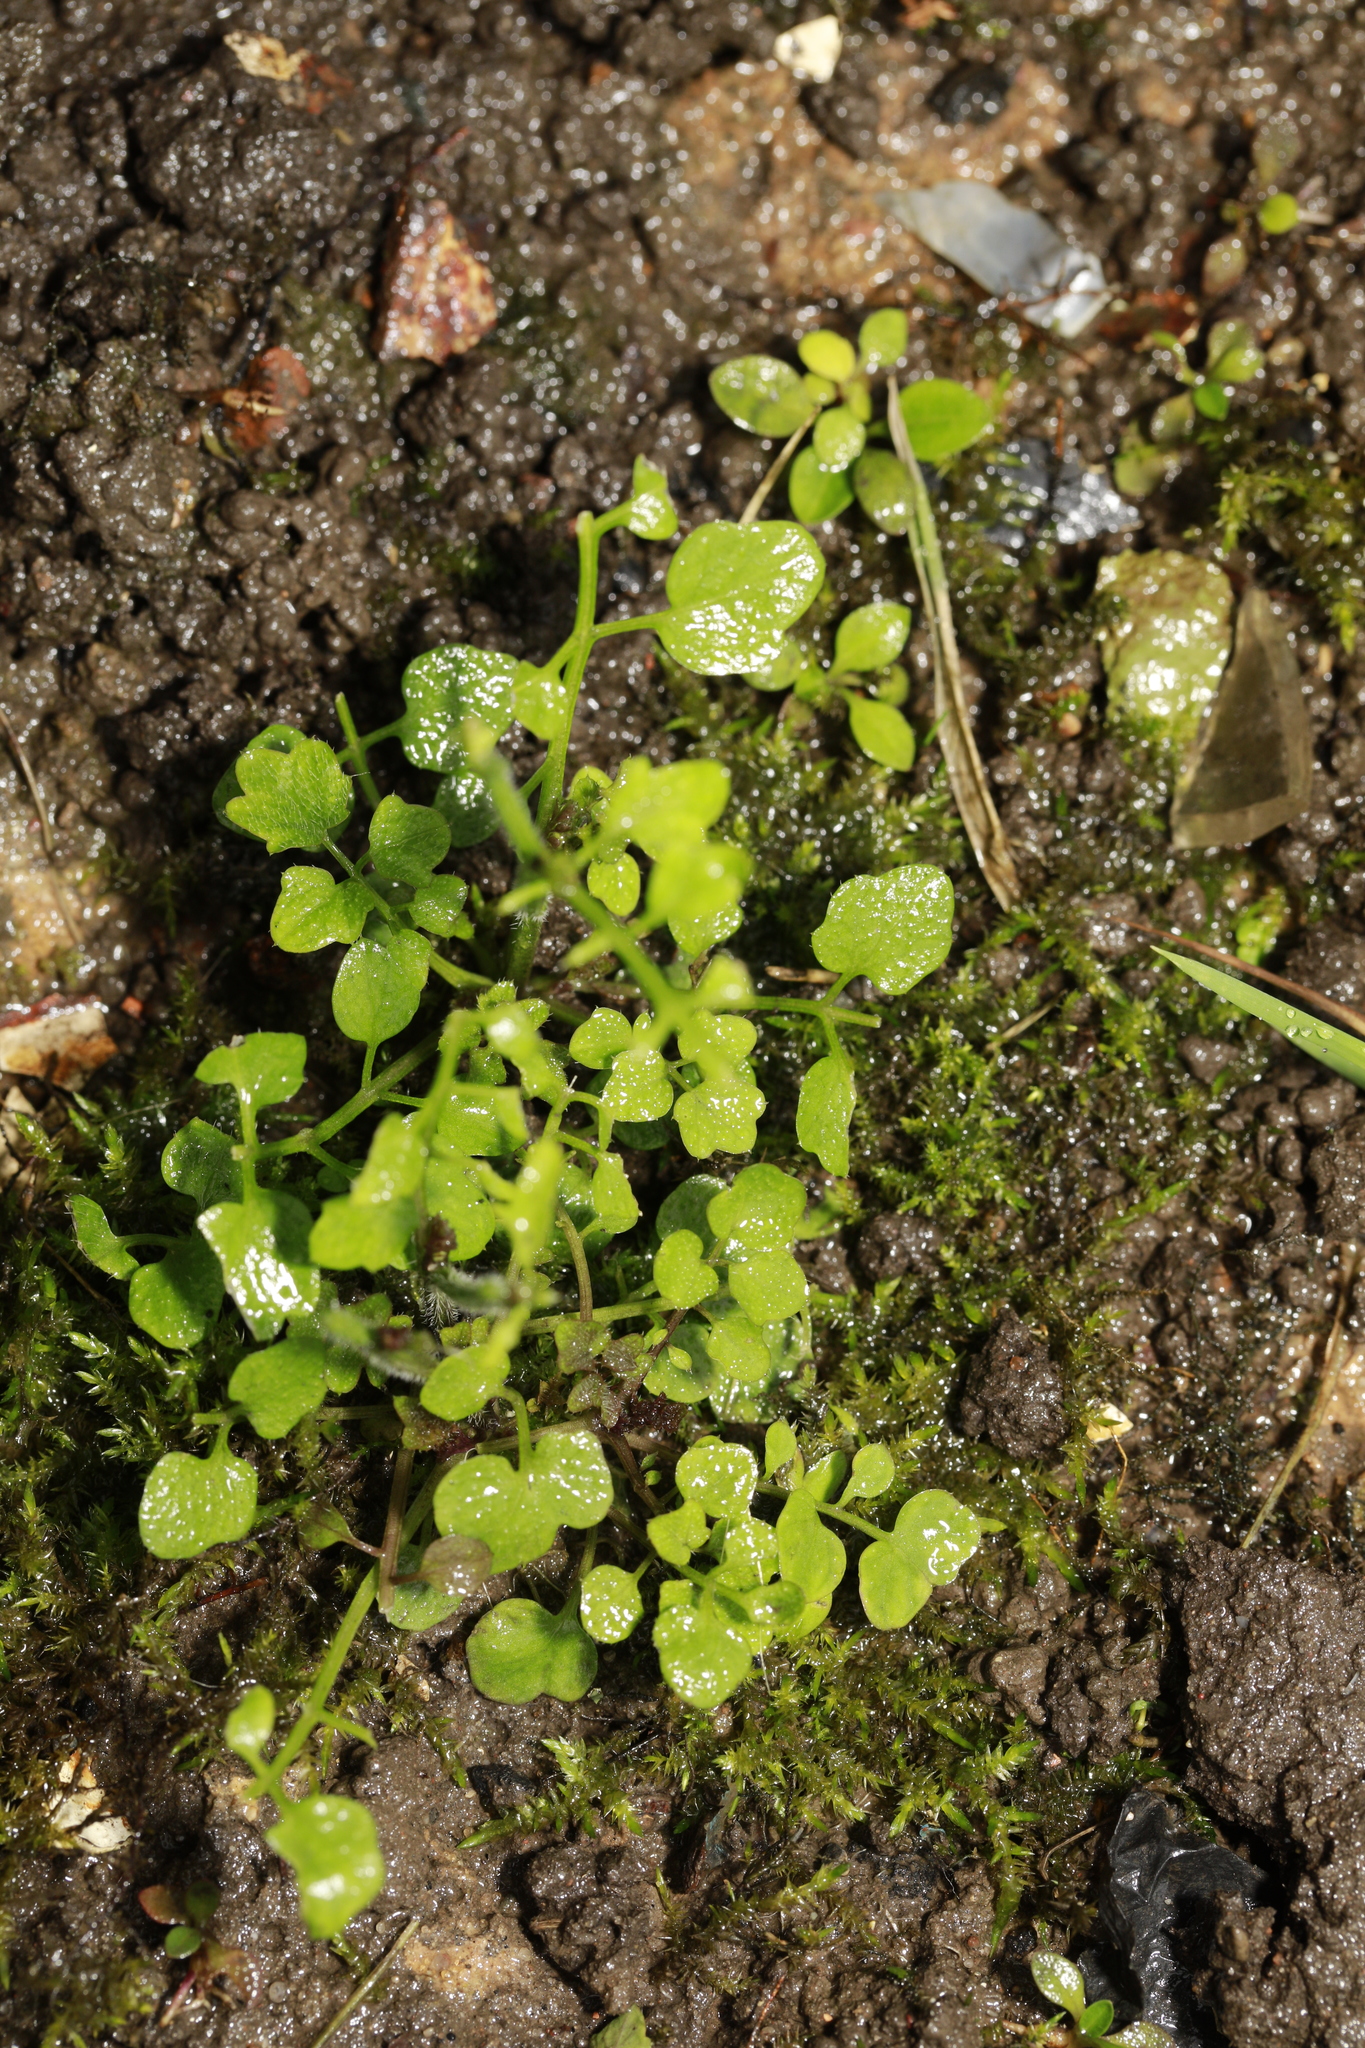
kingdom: Plantae
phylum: Tracheophyta
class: Magnoliopsida
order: Brassicales
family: Brassicaceae
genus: Cardamine
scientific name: Cardamine hirsuta
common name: Hairy bittercress
